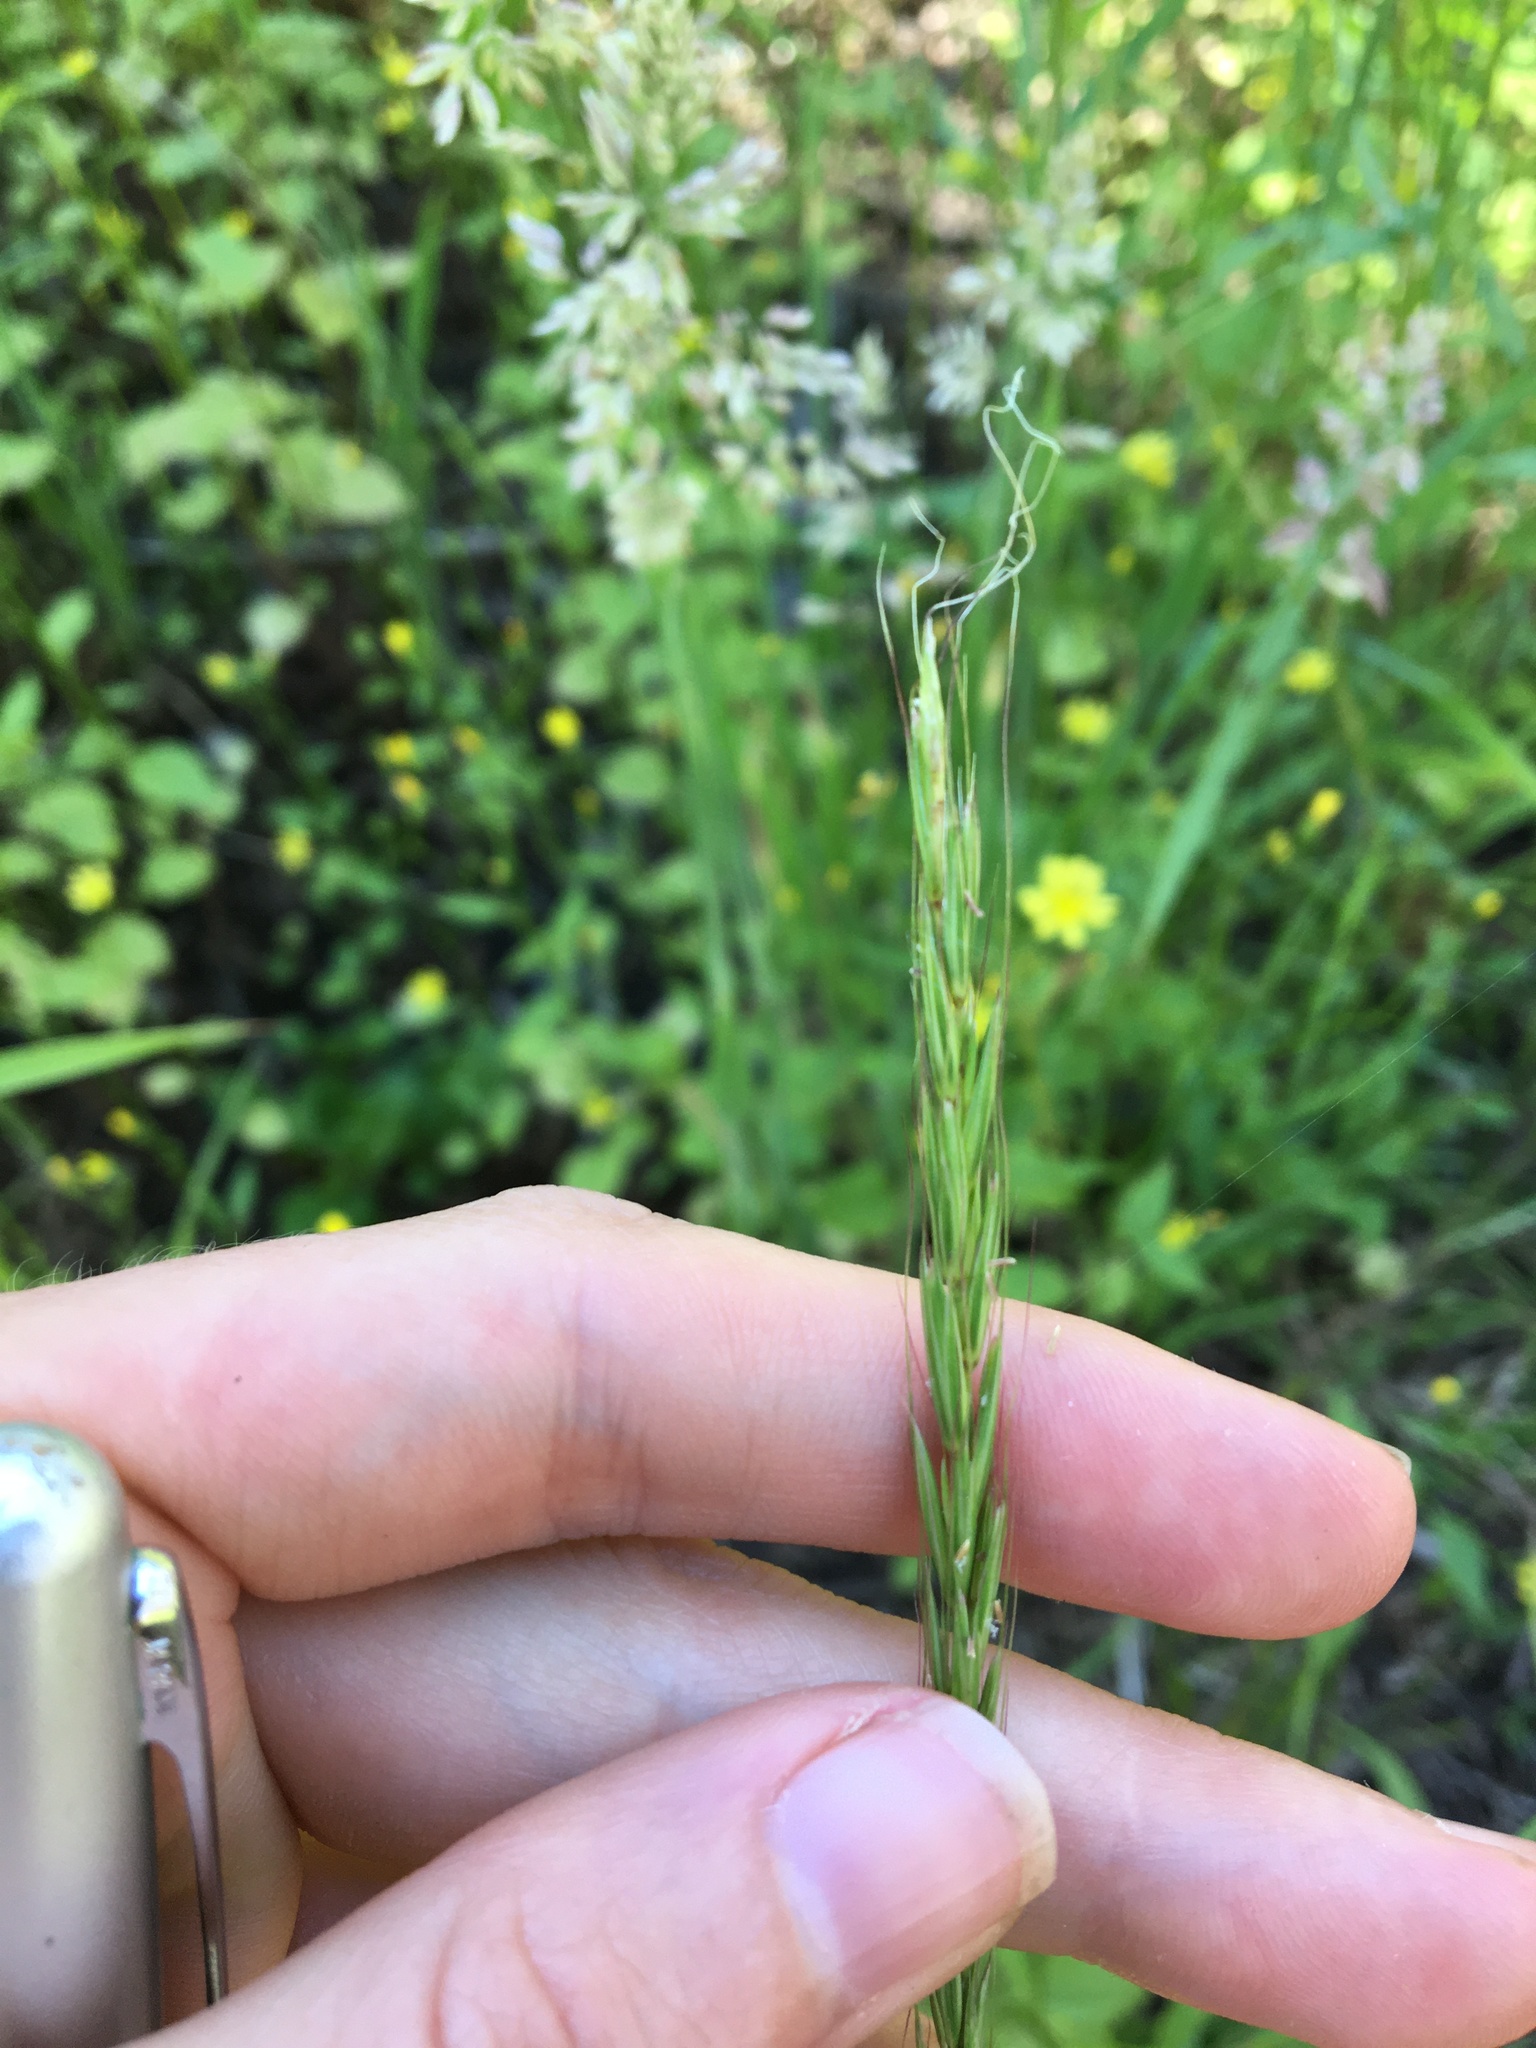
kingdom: Plantae
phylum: Tracheophyta
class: Liliopsida
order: Poales
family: Poaceae
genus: Elymus
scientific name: Elymus glaucus
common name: Blue wild rye
